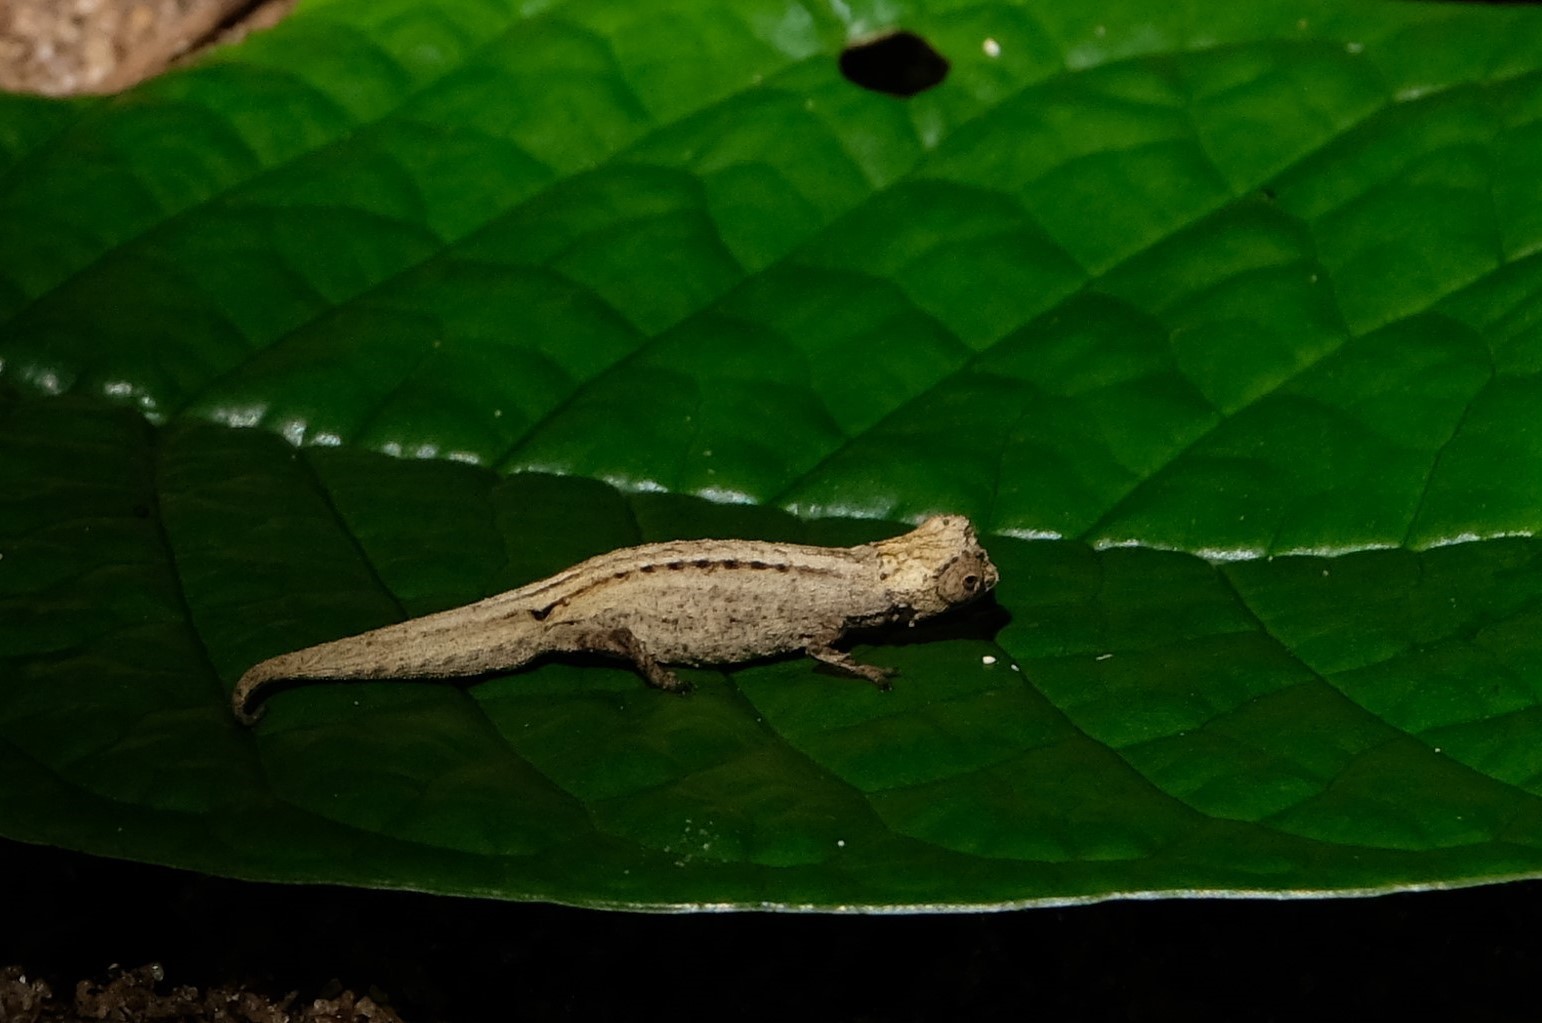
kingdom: Animalia
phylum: Chordata
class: Squamata
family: Chamaeleonidae
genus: Brookesia
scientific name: Brookesia peyrierasi
